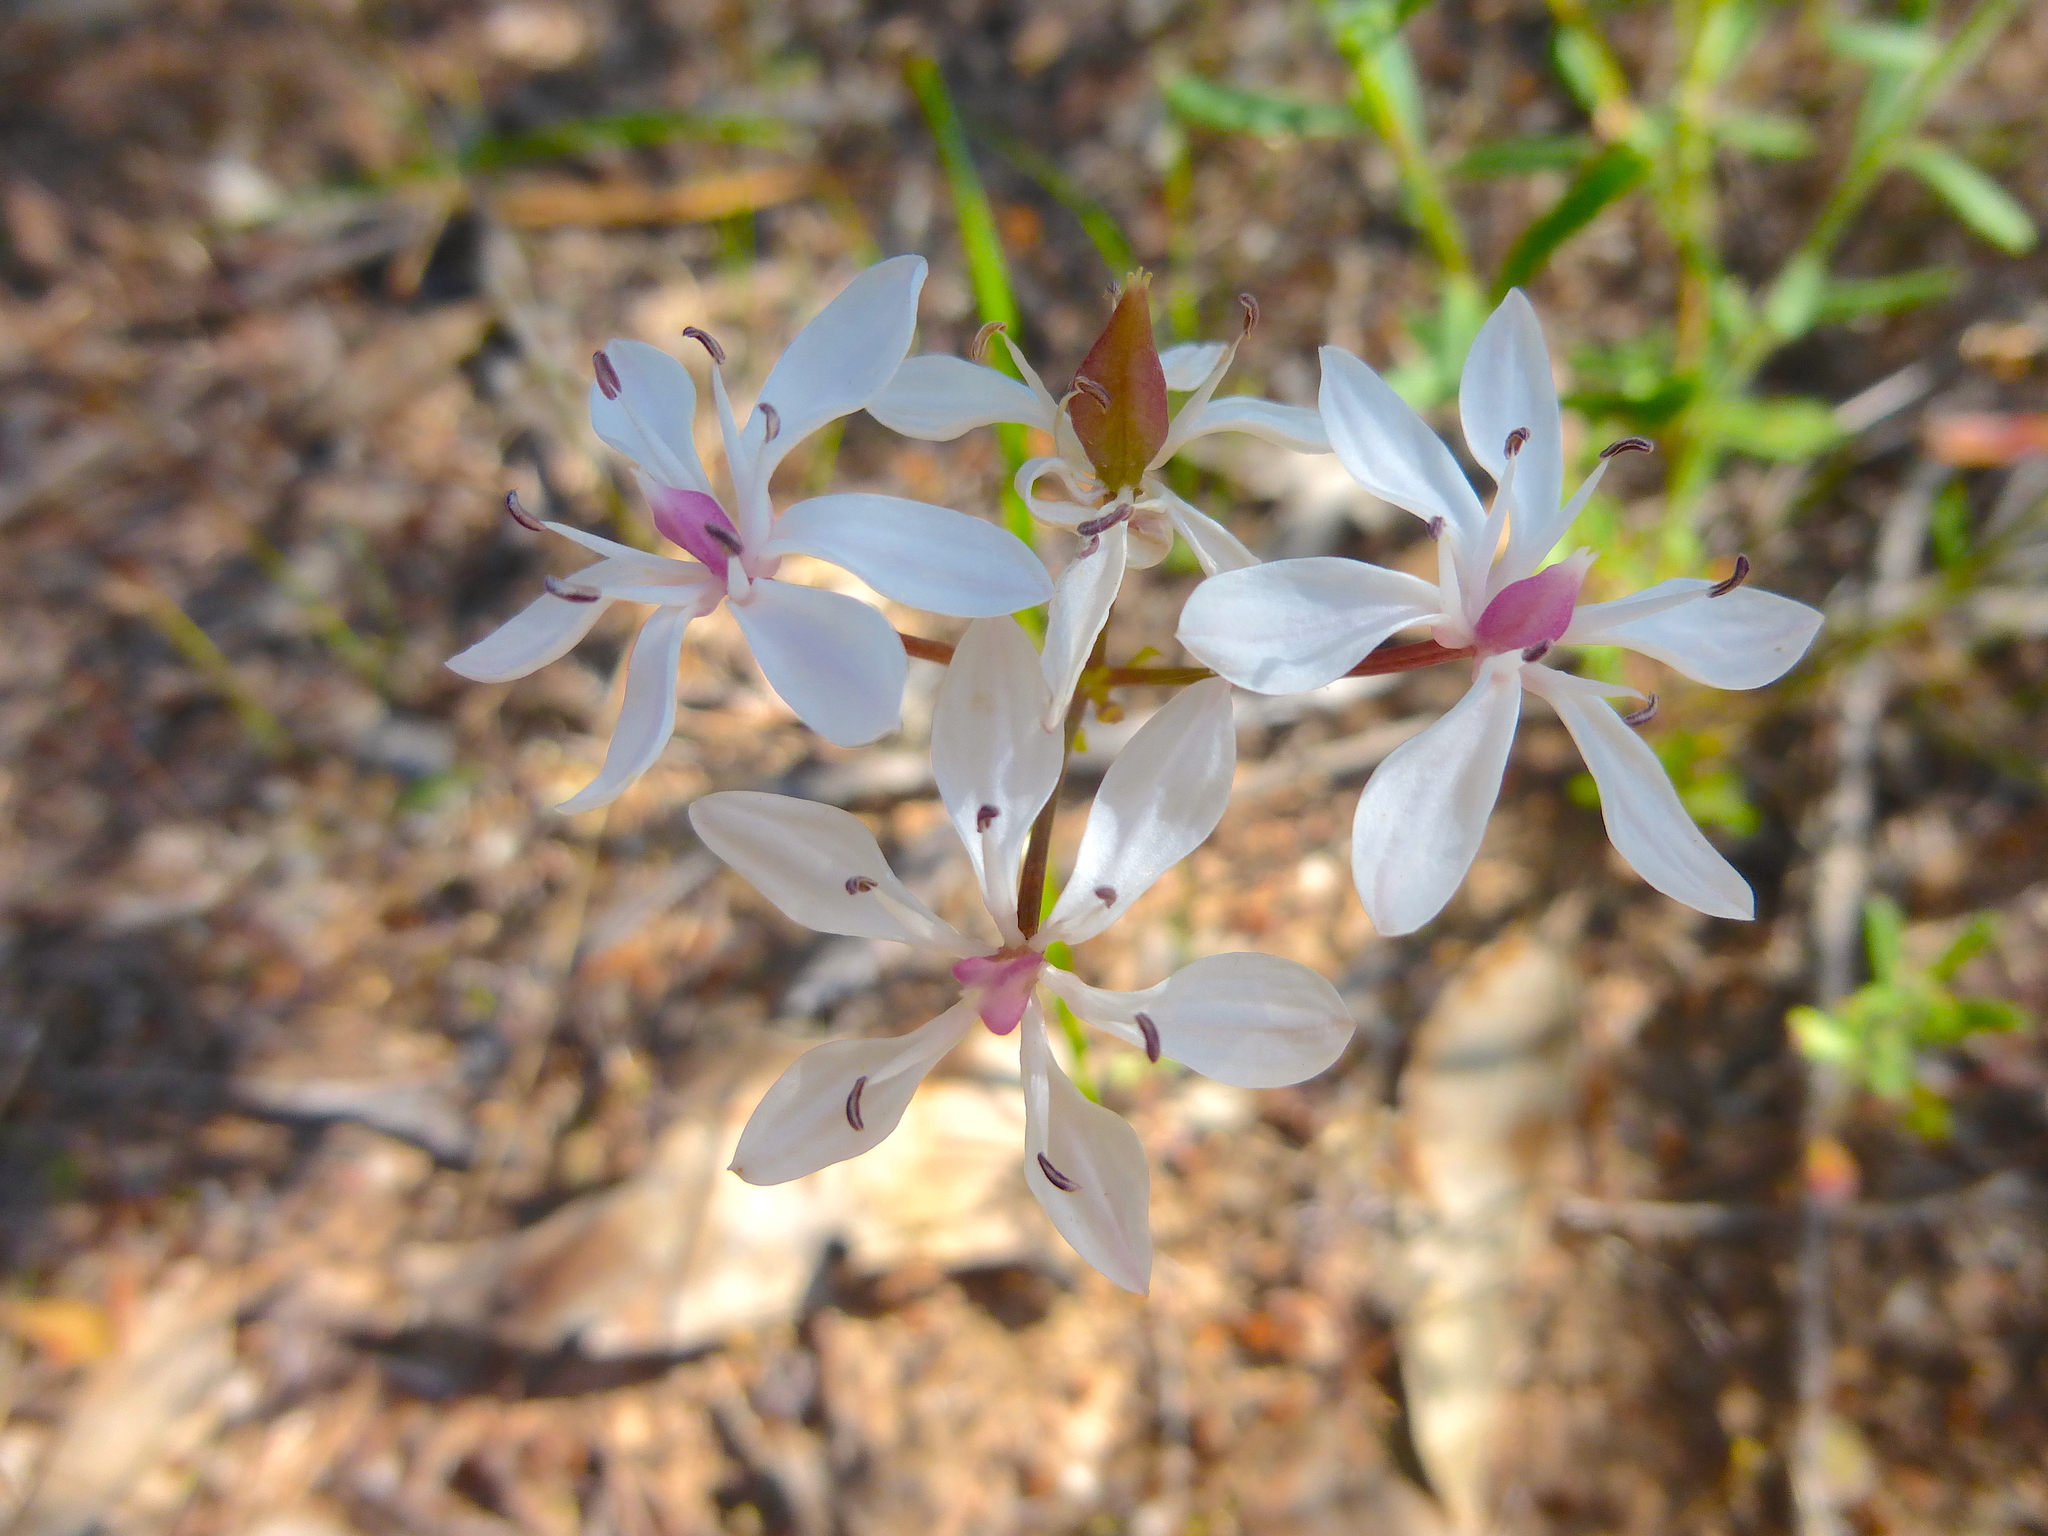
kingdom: Plantae
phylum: Tracheophyta
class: Liliopsida
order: Liliales
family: Colchicaceae
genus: Burchardia
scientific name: Burchardia umbellata
